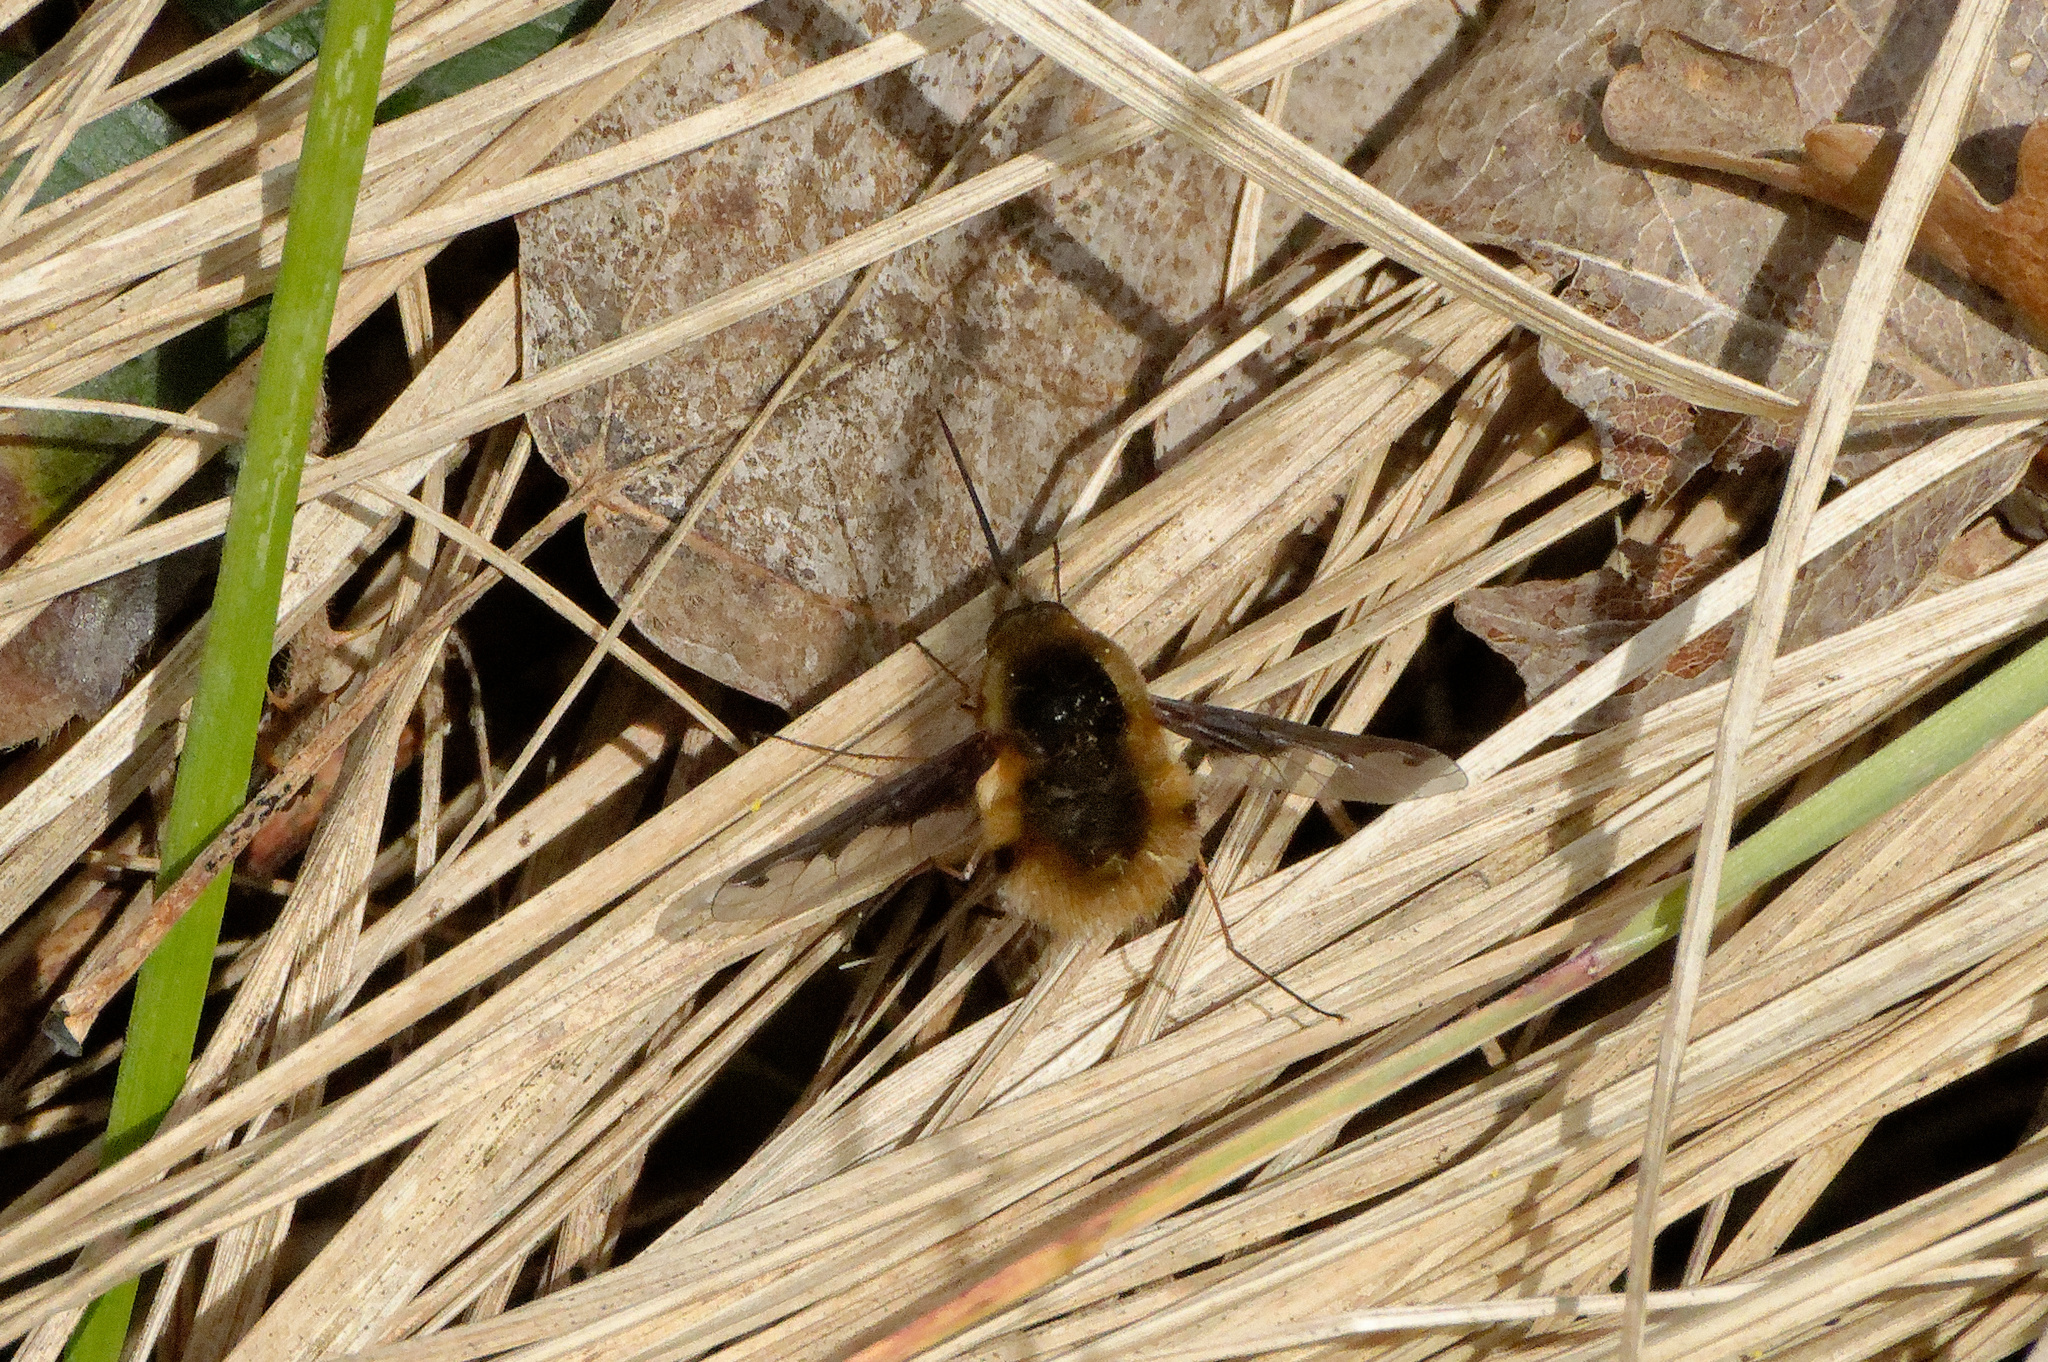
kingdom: Animalia
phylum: Arthropoda
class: Insecta
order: Diptera
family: Bombyliidae
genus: Bombylius
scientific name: Bombylius major
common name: Bee fly
